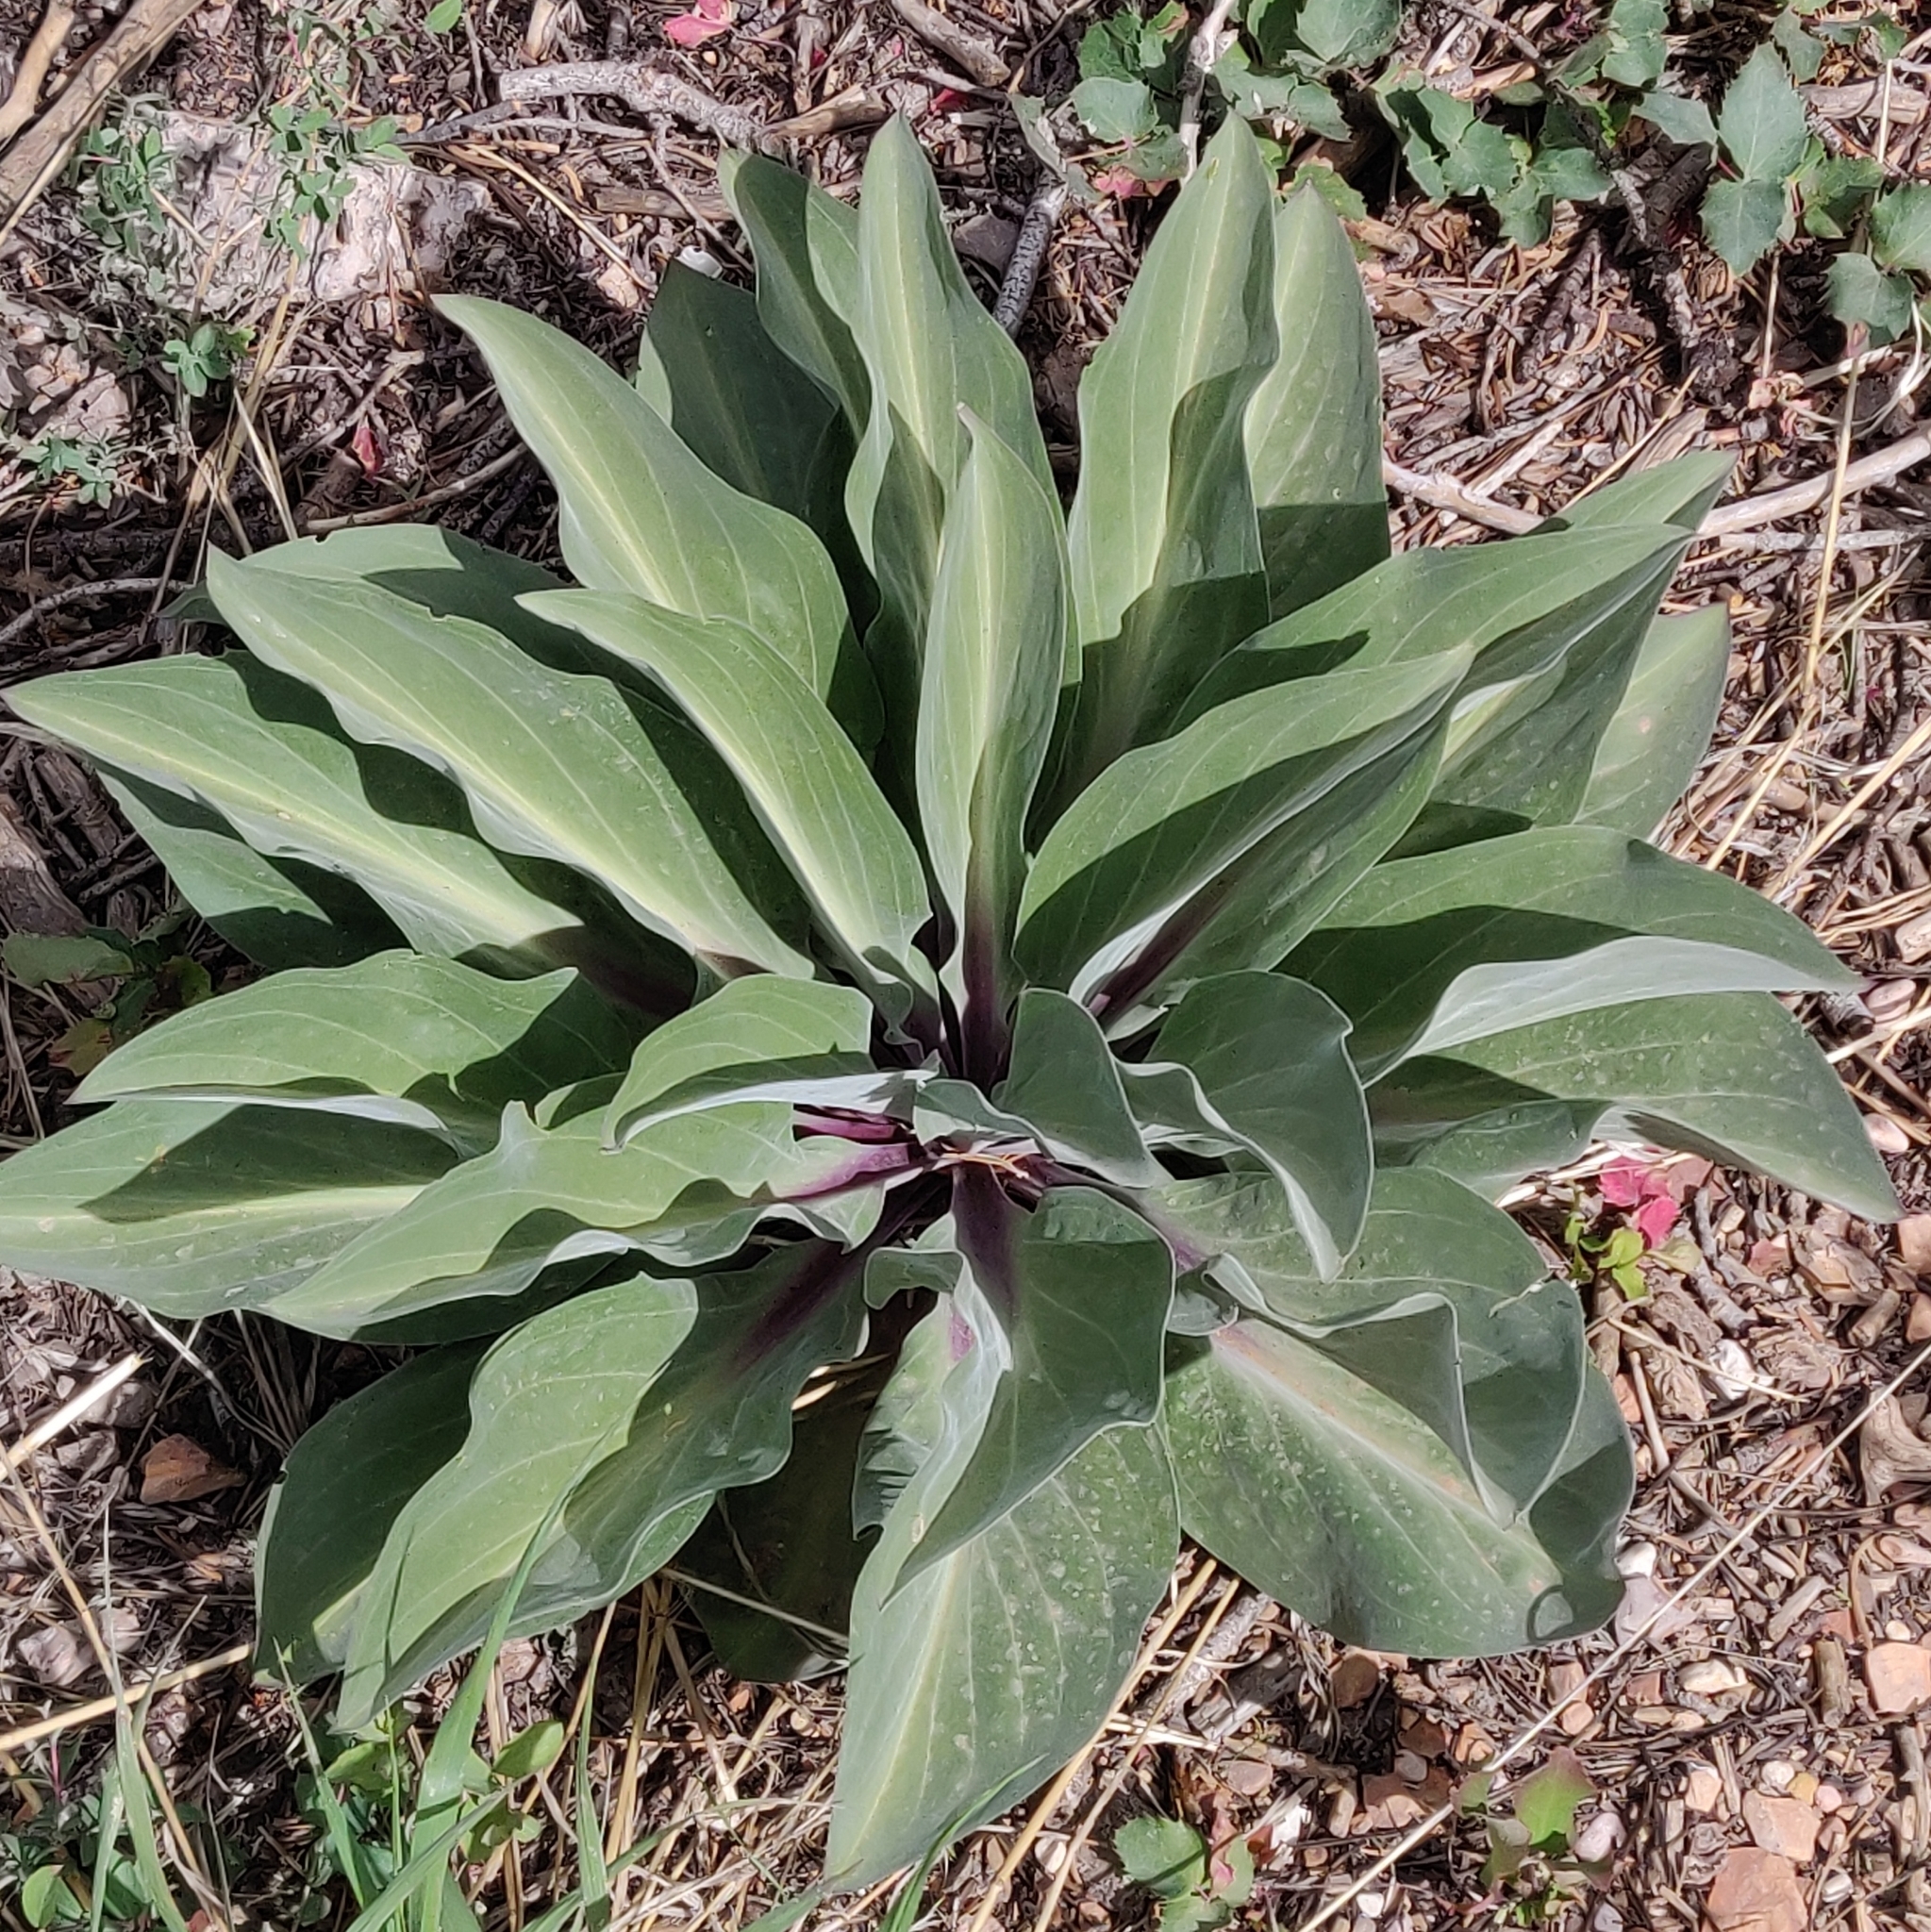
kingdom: Plantae
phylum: Tracheophyta
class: Magnoliopsida
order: Gentianales
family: Gentianaceae
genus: Frasera
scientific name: Frasera speciosa
